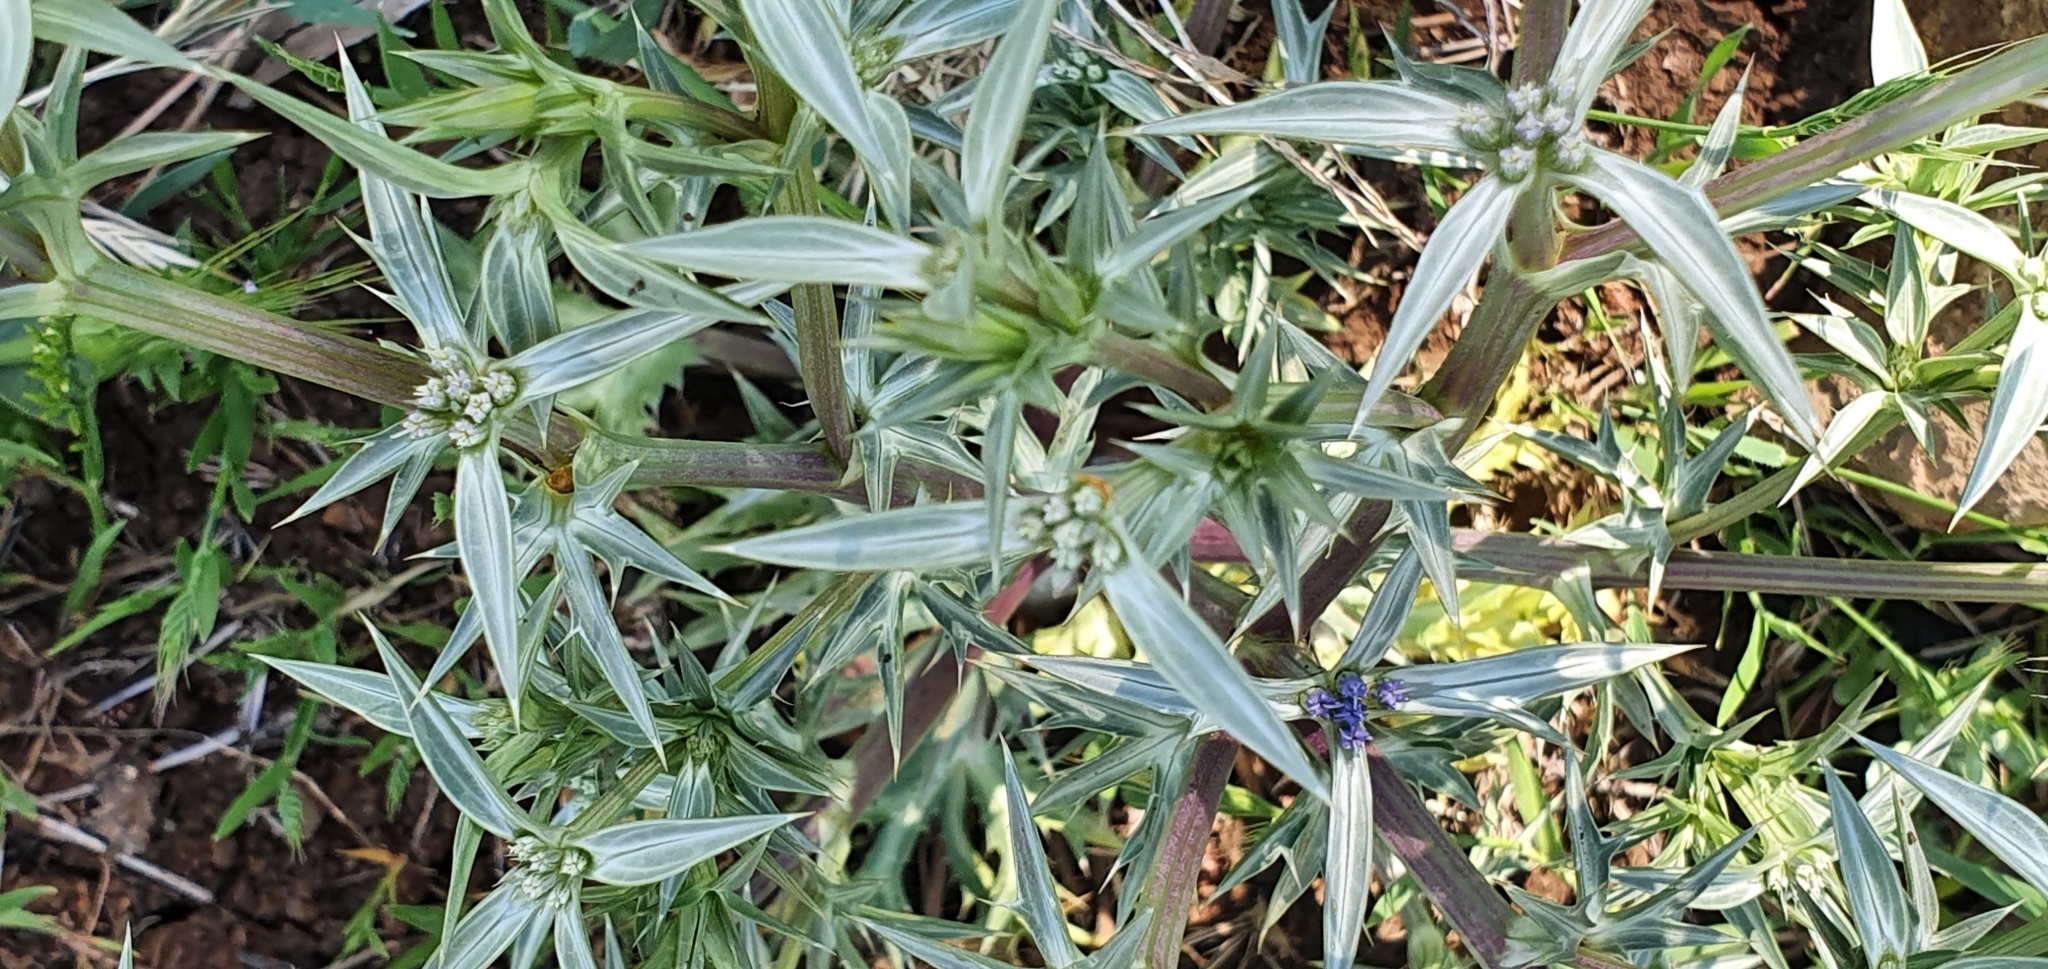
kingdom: Plantae
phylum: Tracheophyta
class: Magnoliopsida
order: Apiales
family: Apiaceae
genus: Eryngium
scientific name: Eryngium triquetrum
